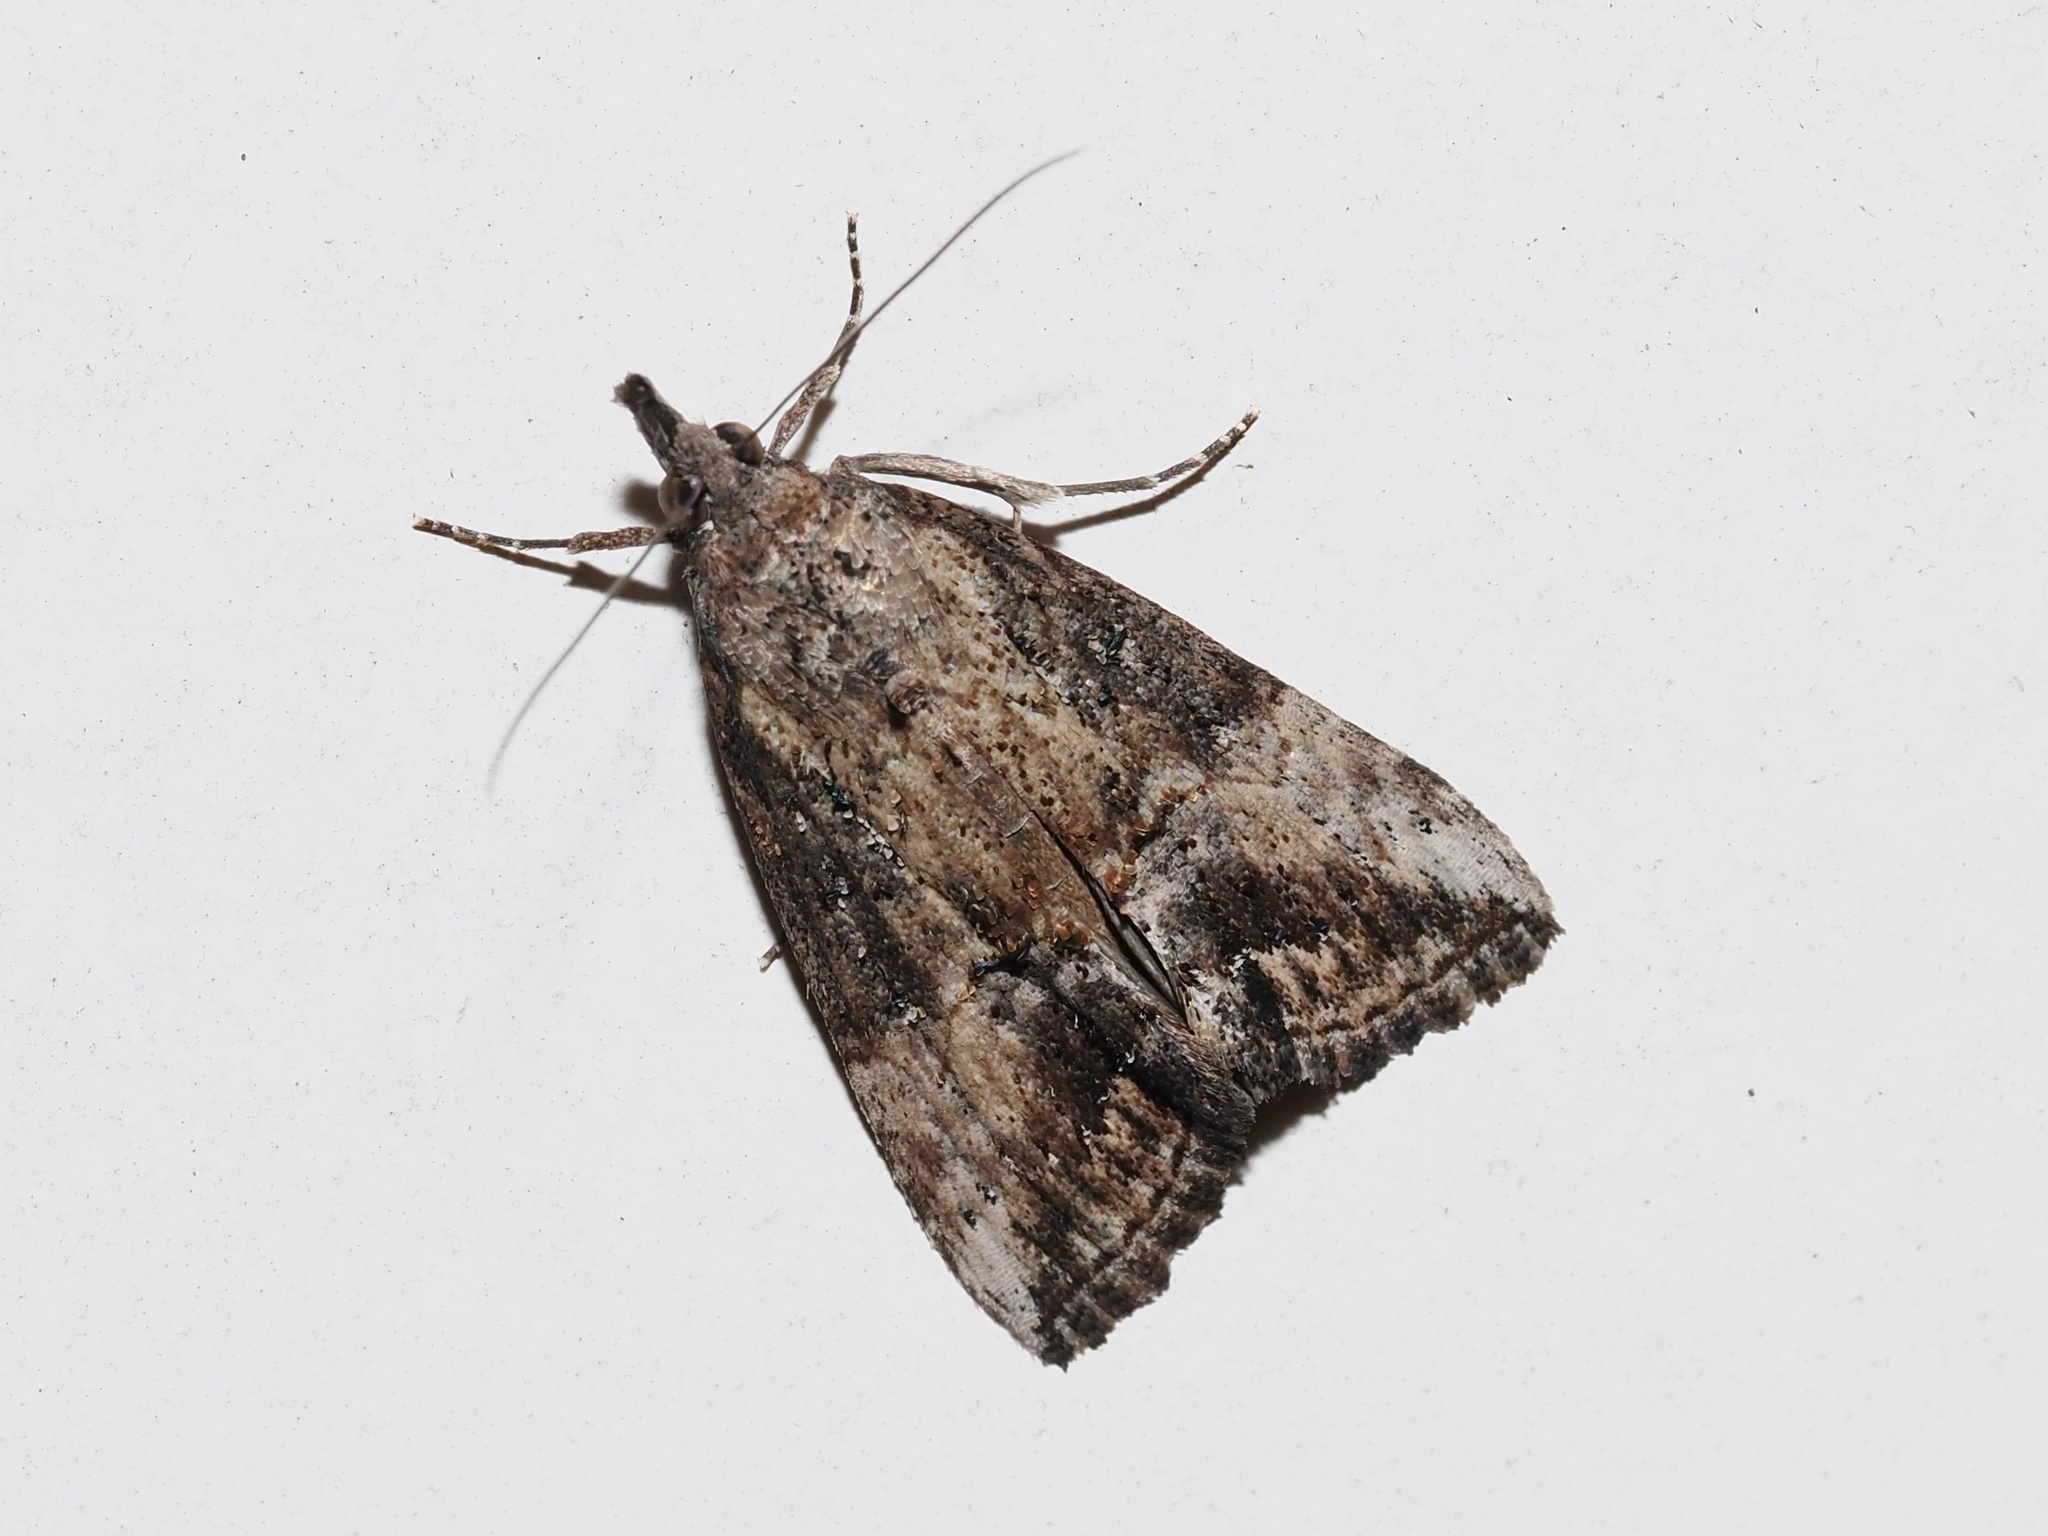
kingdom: Animalia
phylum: Arthropoda
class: Insecta
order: Lepidoptera
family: Erebidae
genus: Hypena
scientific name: Hypena scabra
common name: Green cloverworm
